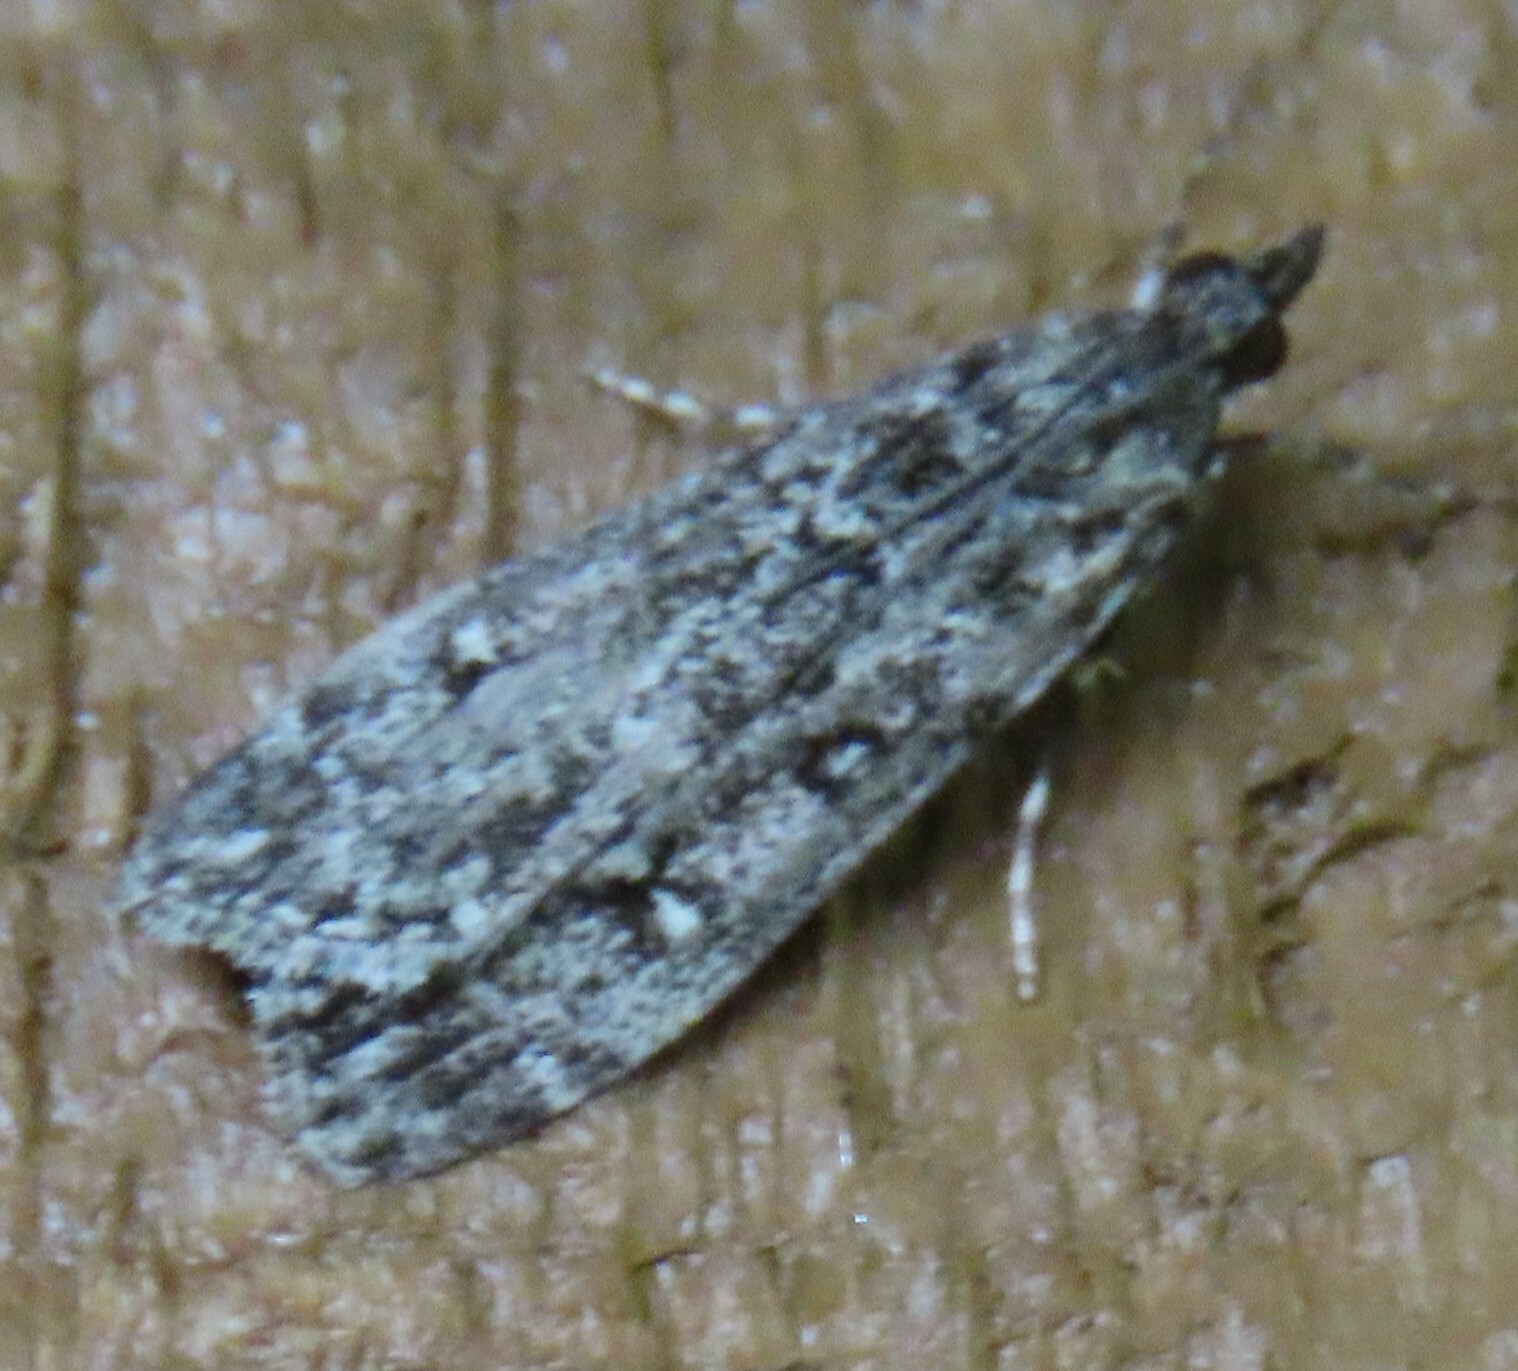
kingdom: Animalia
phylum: Arthropoda
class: Insecta
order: Lepidoptera
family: Crambidae
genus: Eudonia
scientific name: Eudonia philerga
